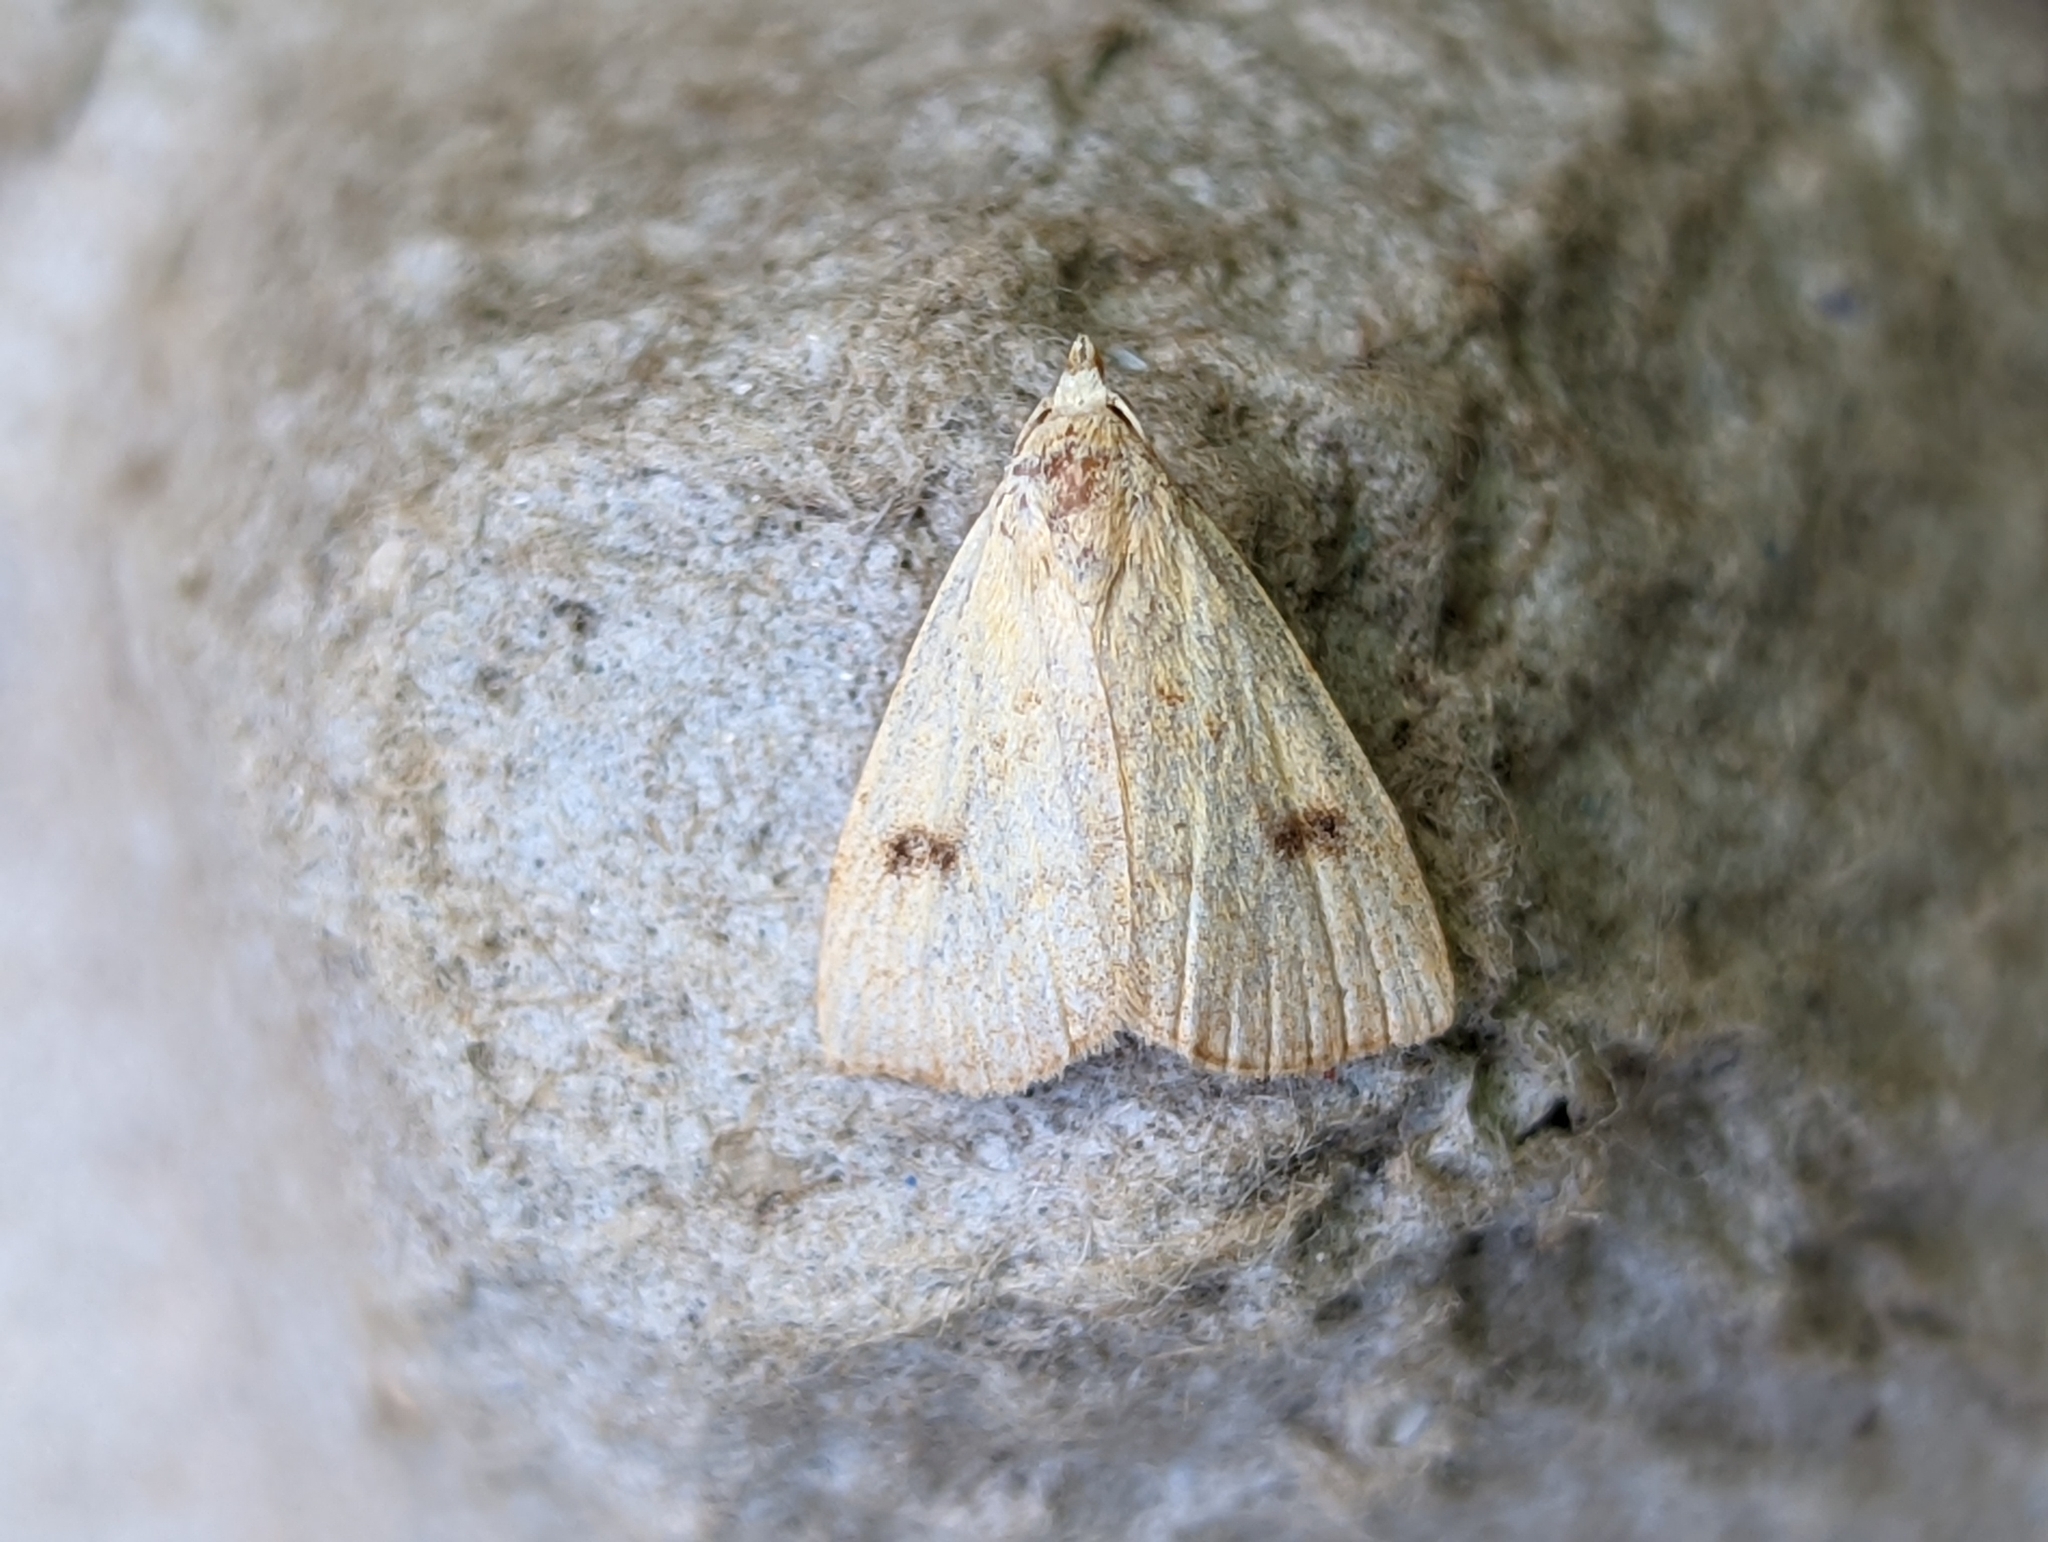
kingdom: Animalia
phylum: Arthropoda
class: Insecta
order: Lepidoptera
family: Erebidae
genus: Rivula
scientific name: Rivula sericealis
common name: Straw dot
